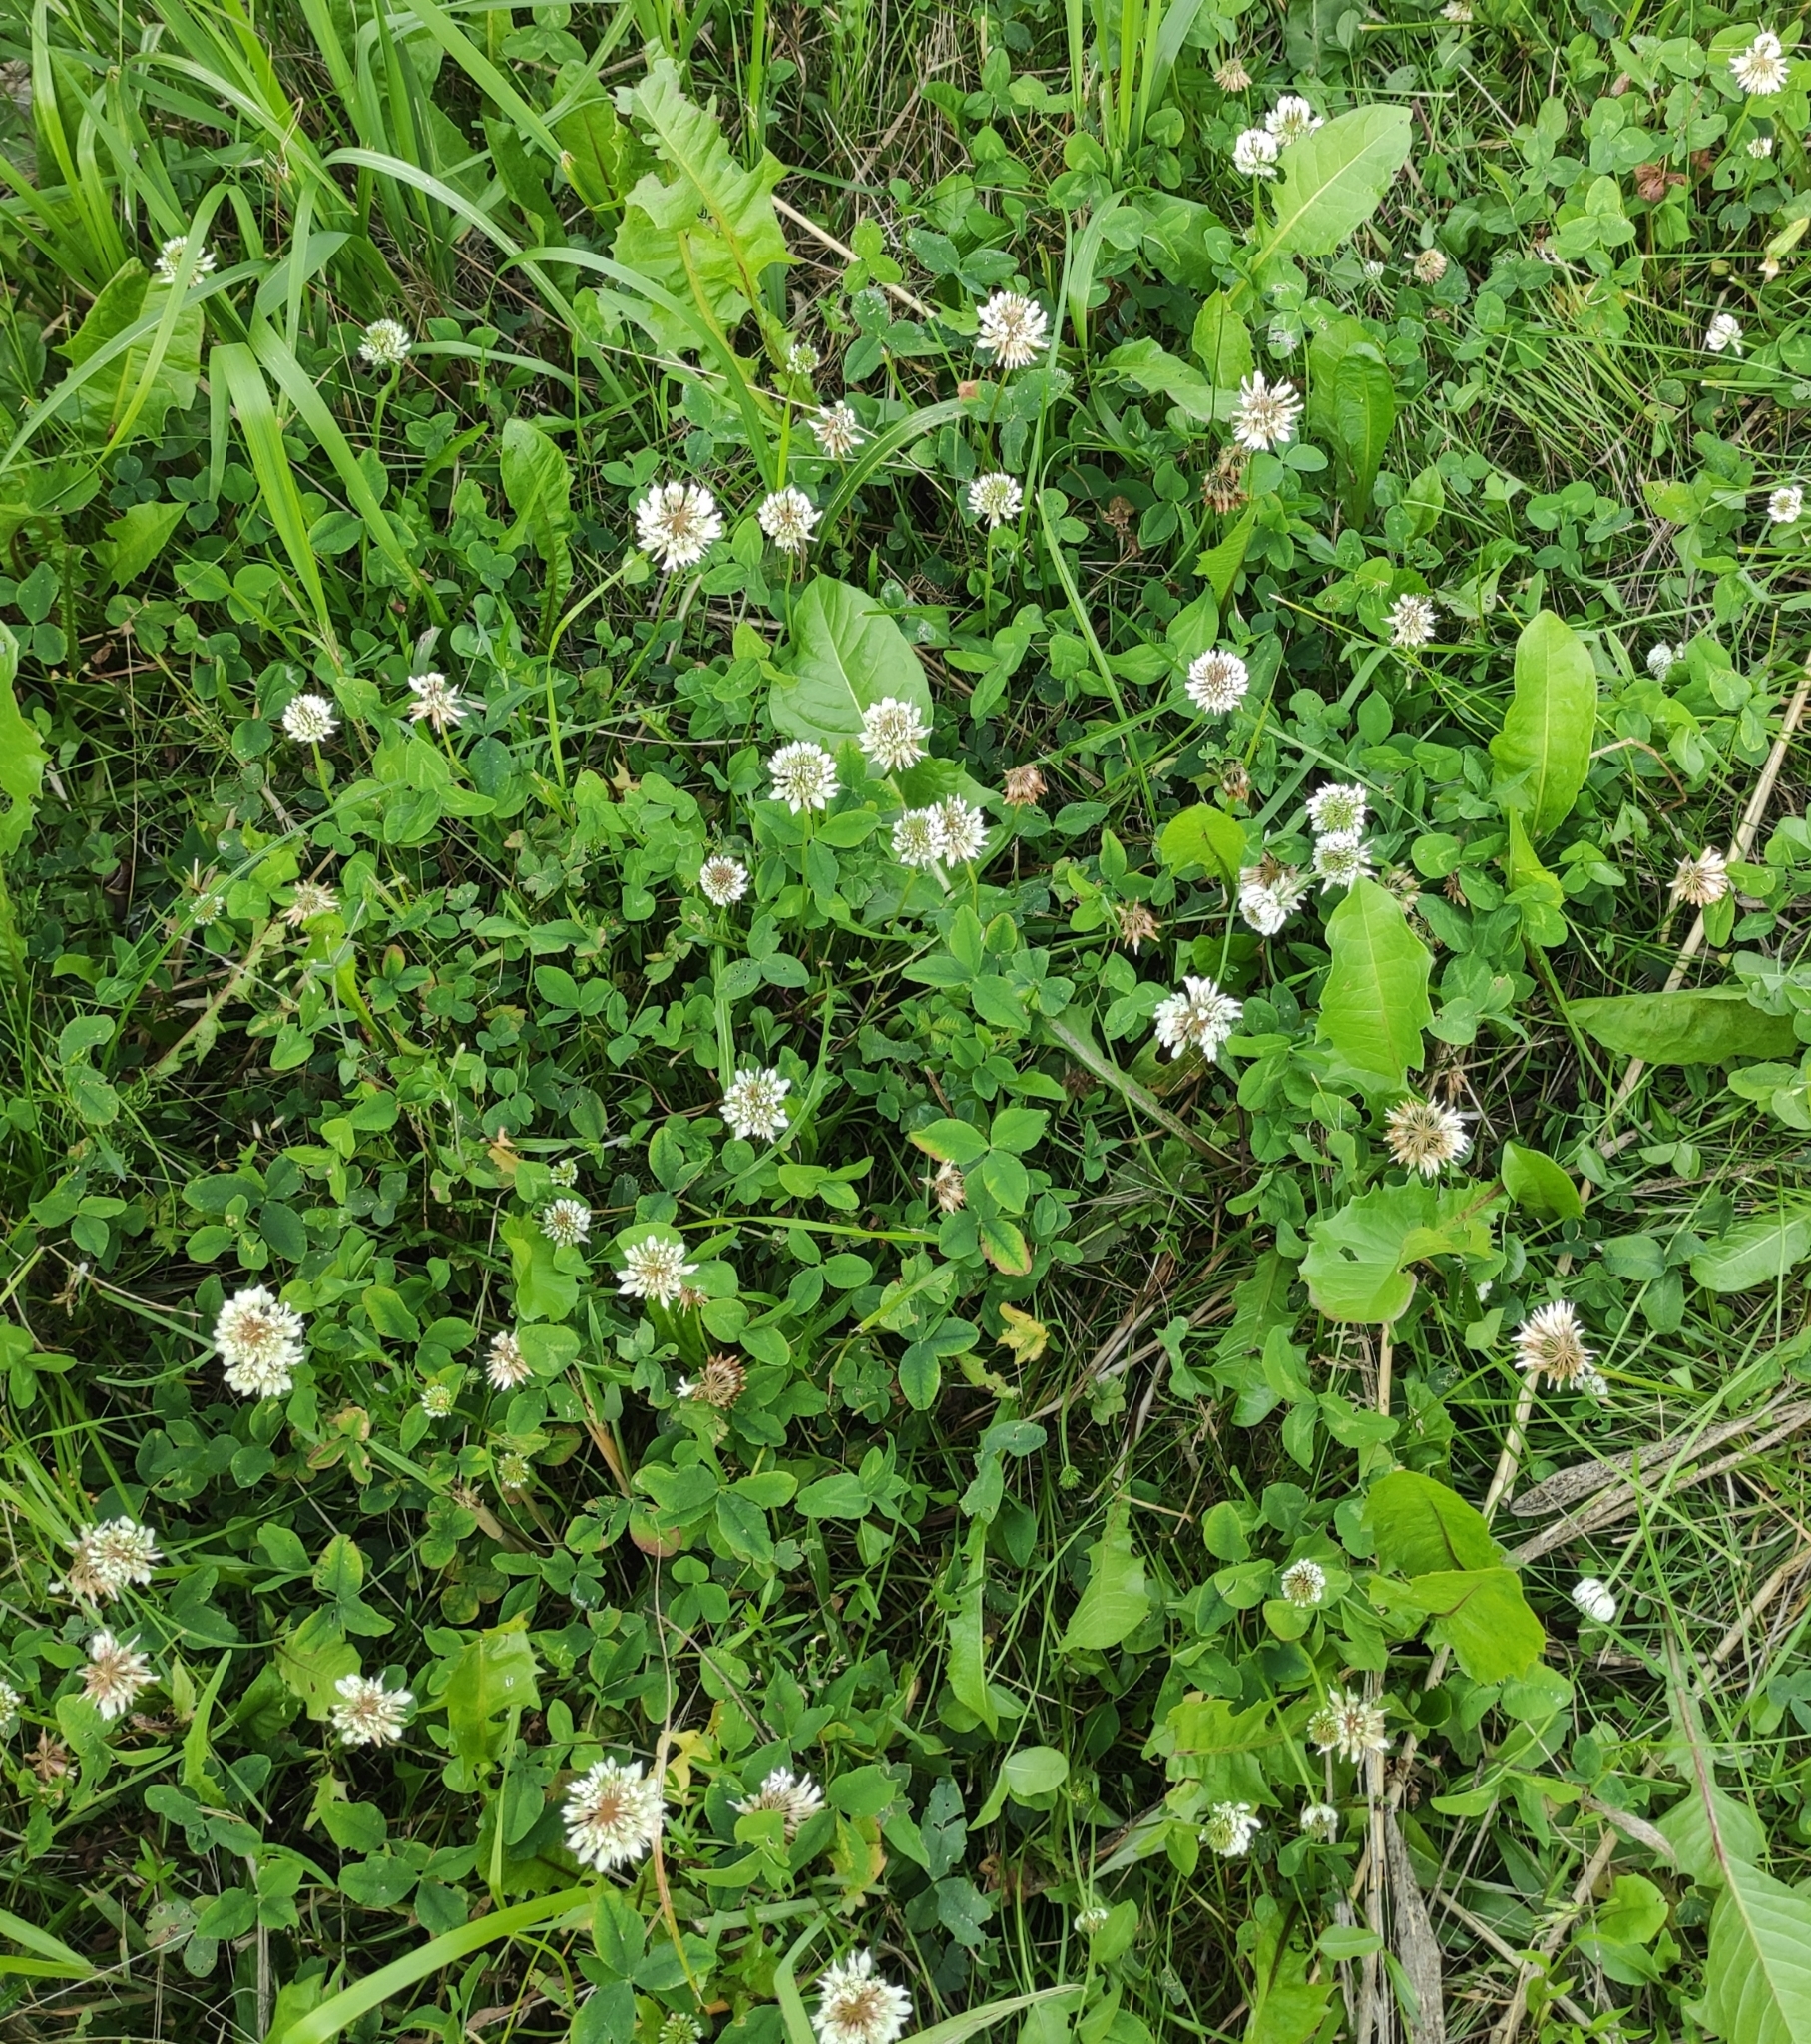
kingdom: Plantae
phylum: Tracheophyta
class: Magnoliopsida
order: Fabales
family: Fabaceae
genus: Trifolium
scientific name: Trifolium repens
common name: White clover
